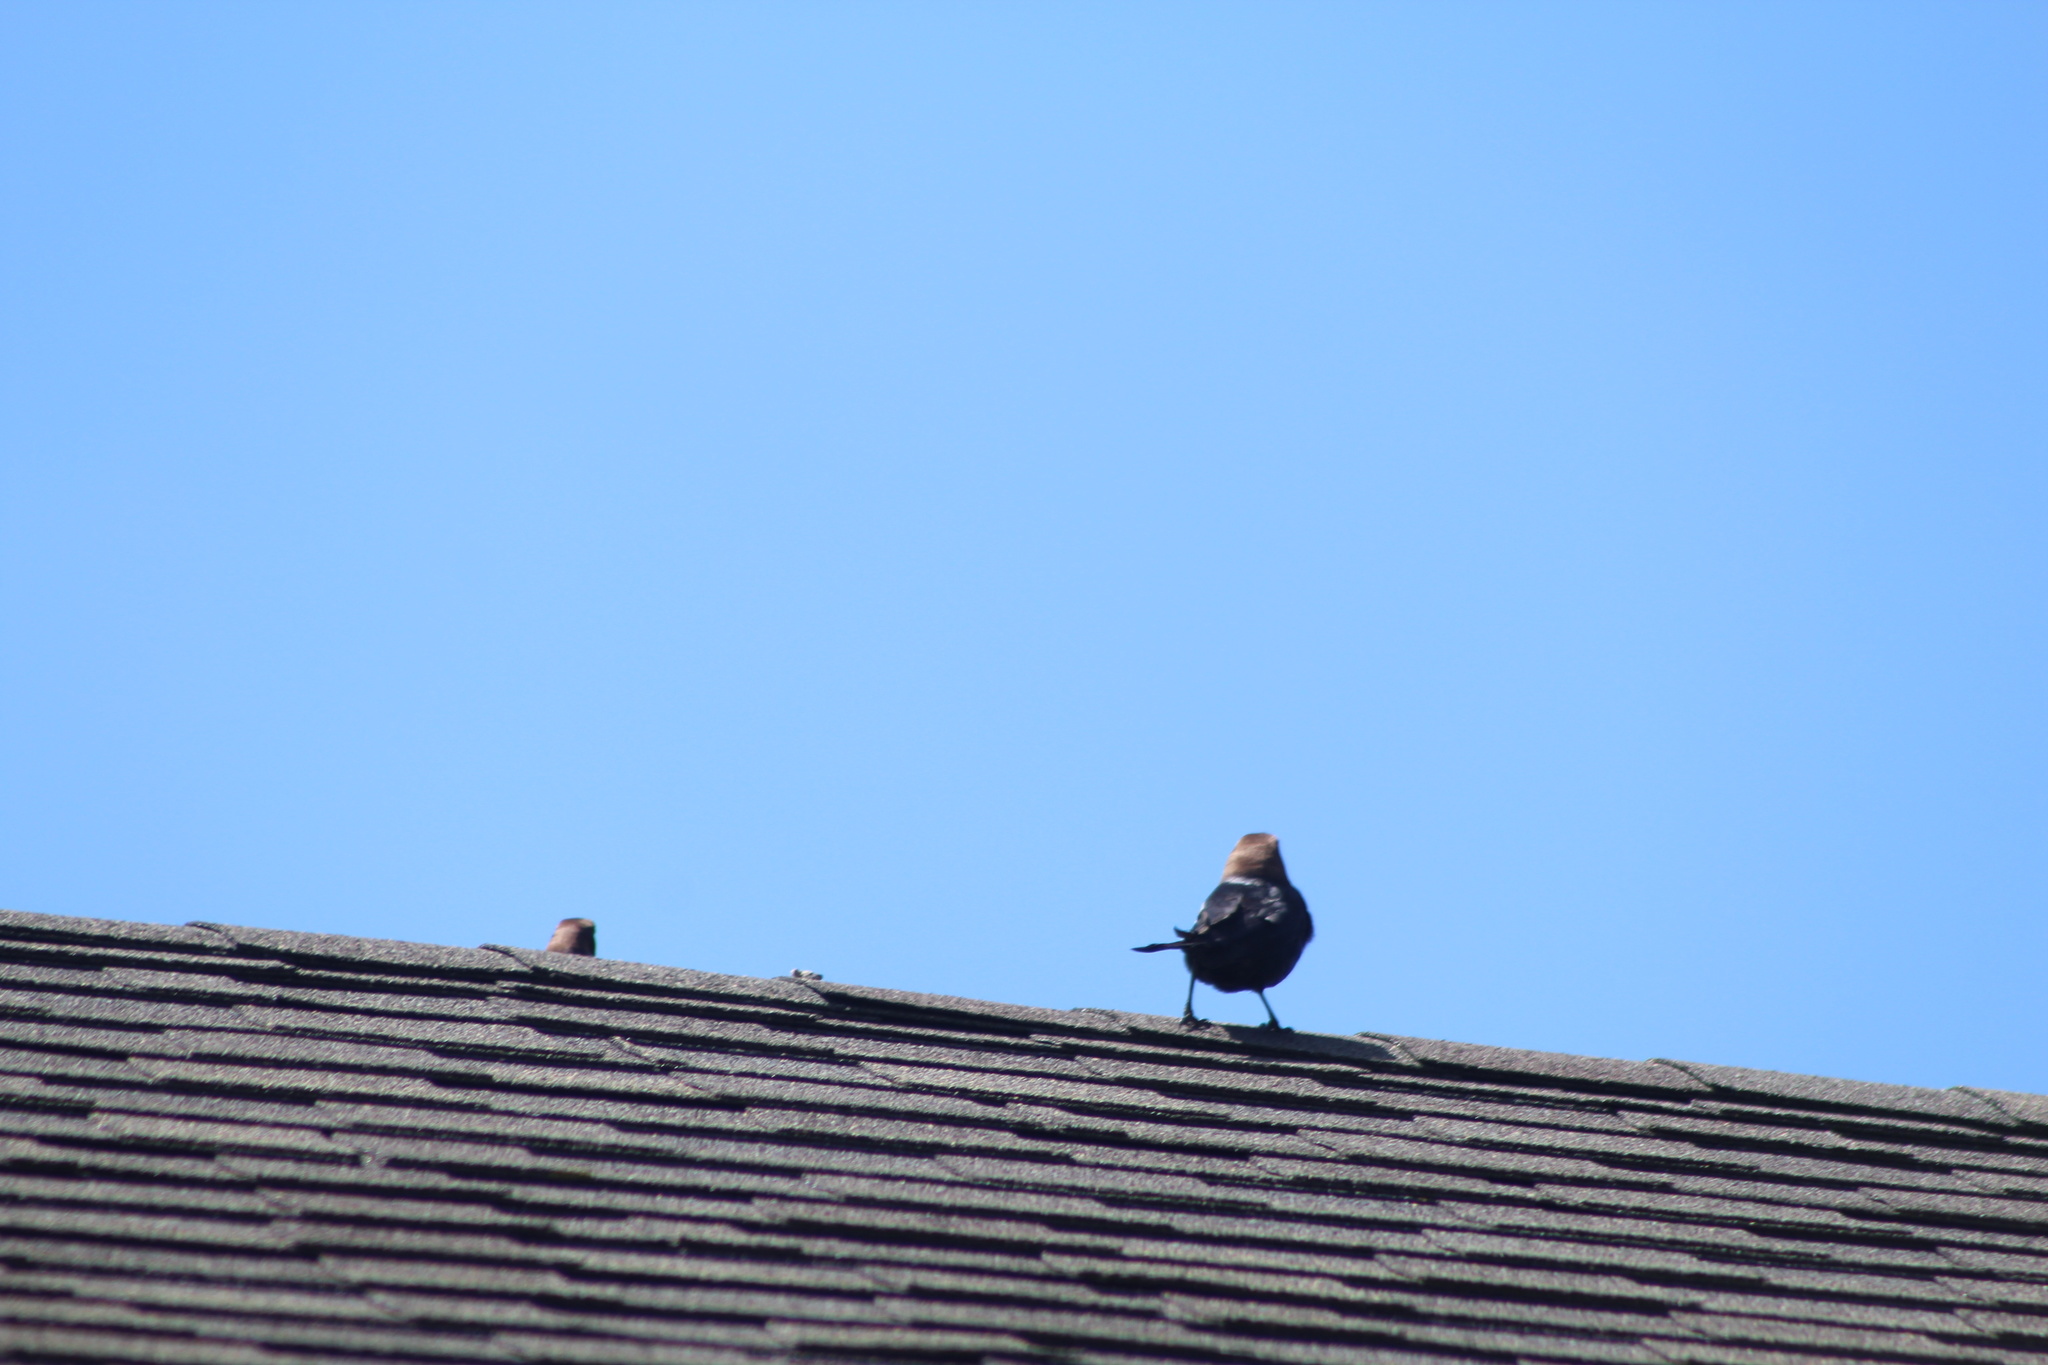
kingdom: Animalia
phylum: Chordata
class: Aves
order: Passeriformes
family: Icteridae
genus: Molothrus
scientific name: Molothrus ater
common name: Brown-headed cowbird
